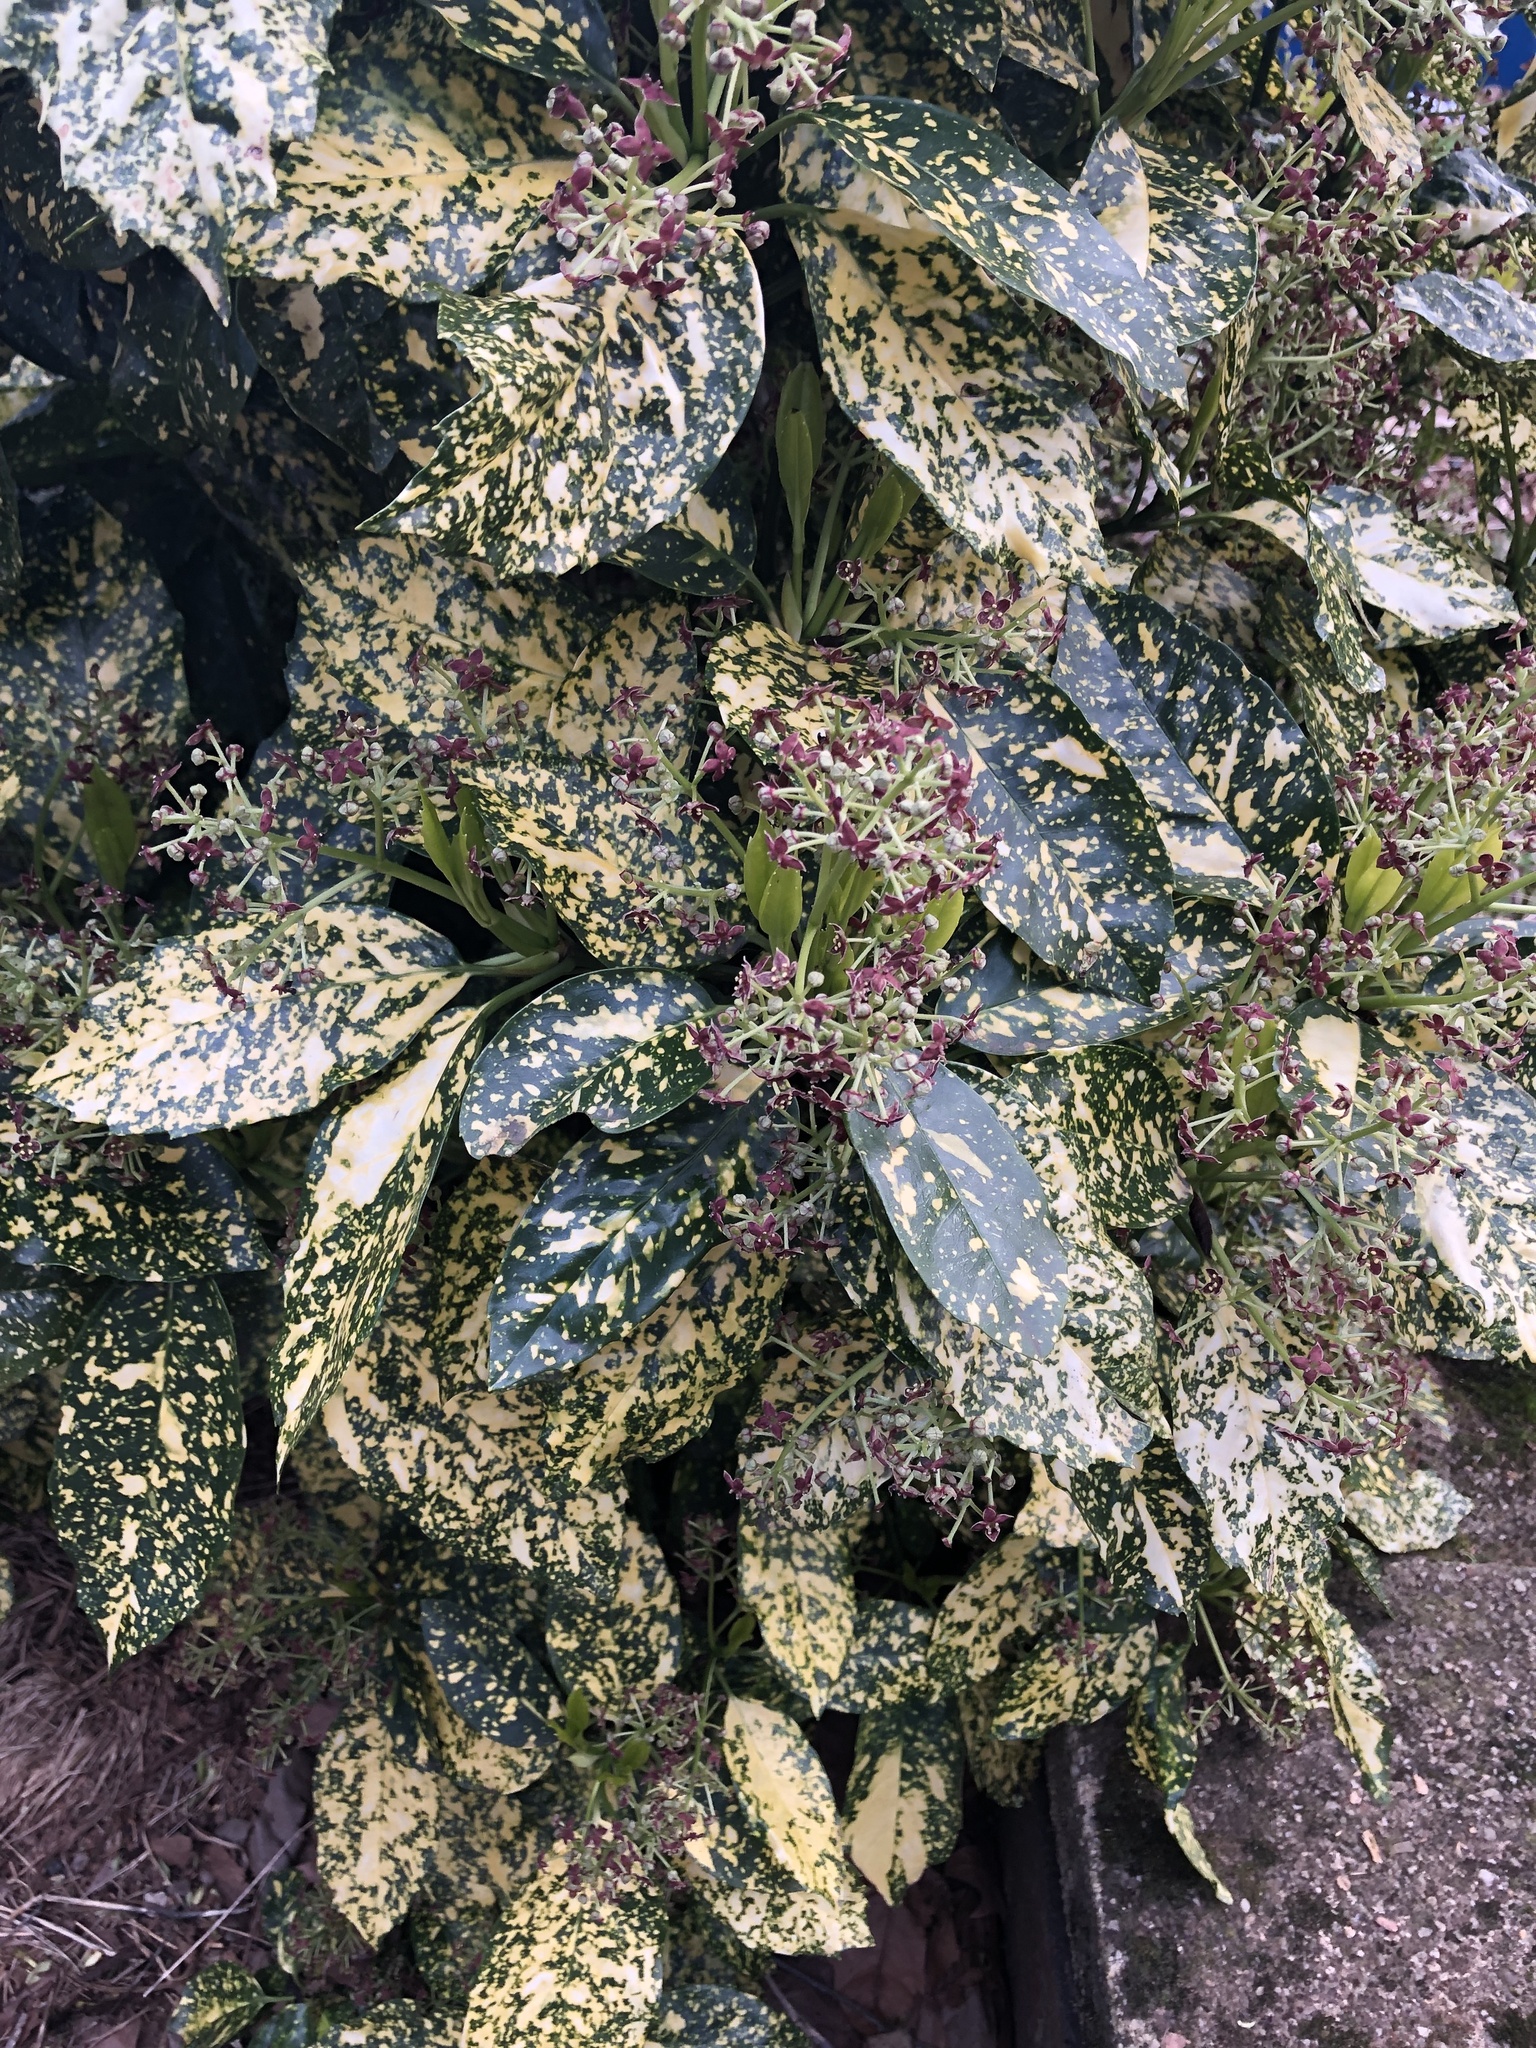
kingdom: Plantae
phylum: Tracheophyta
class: Magnoliopsida
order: Garryales
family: Garryaceae
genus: Aucuba
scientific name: Aucuba japonica
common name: Spotted-laurel
